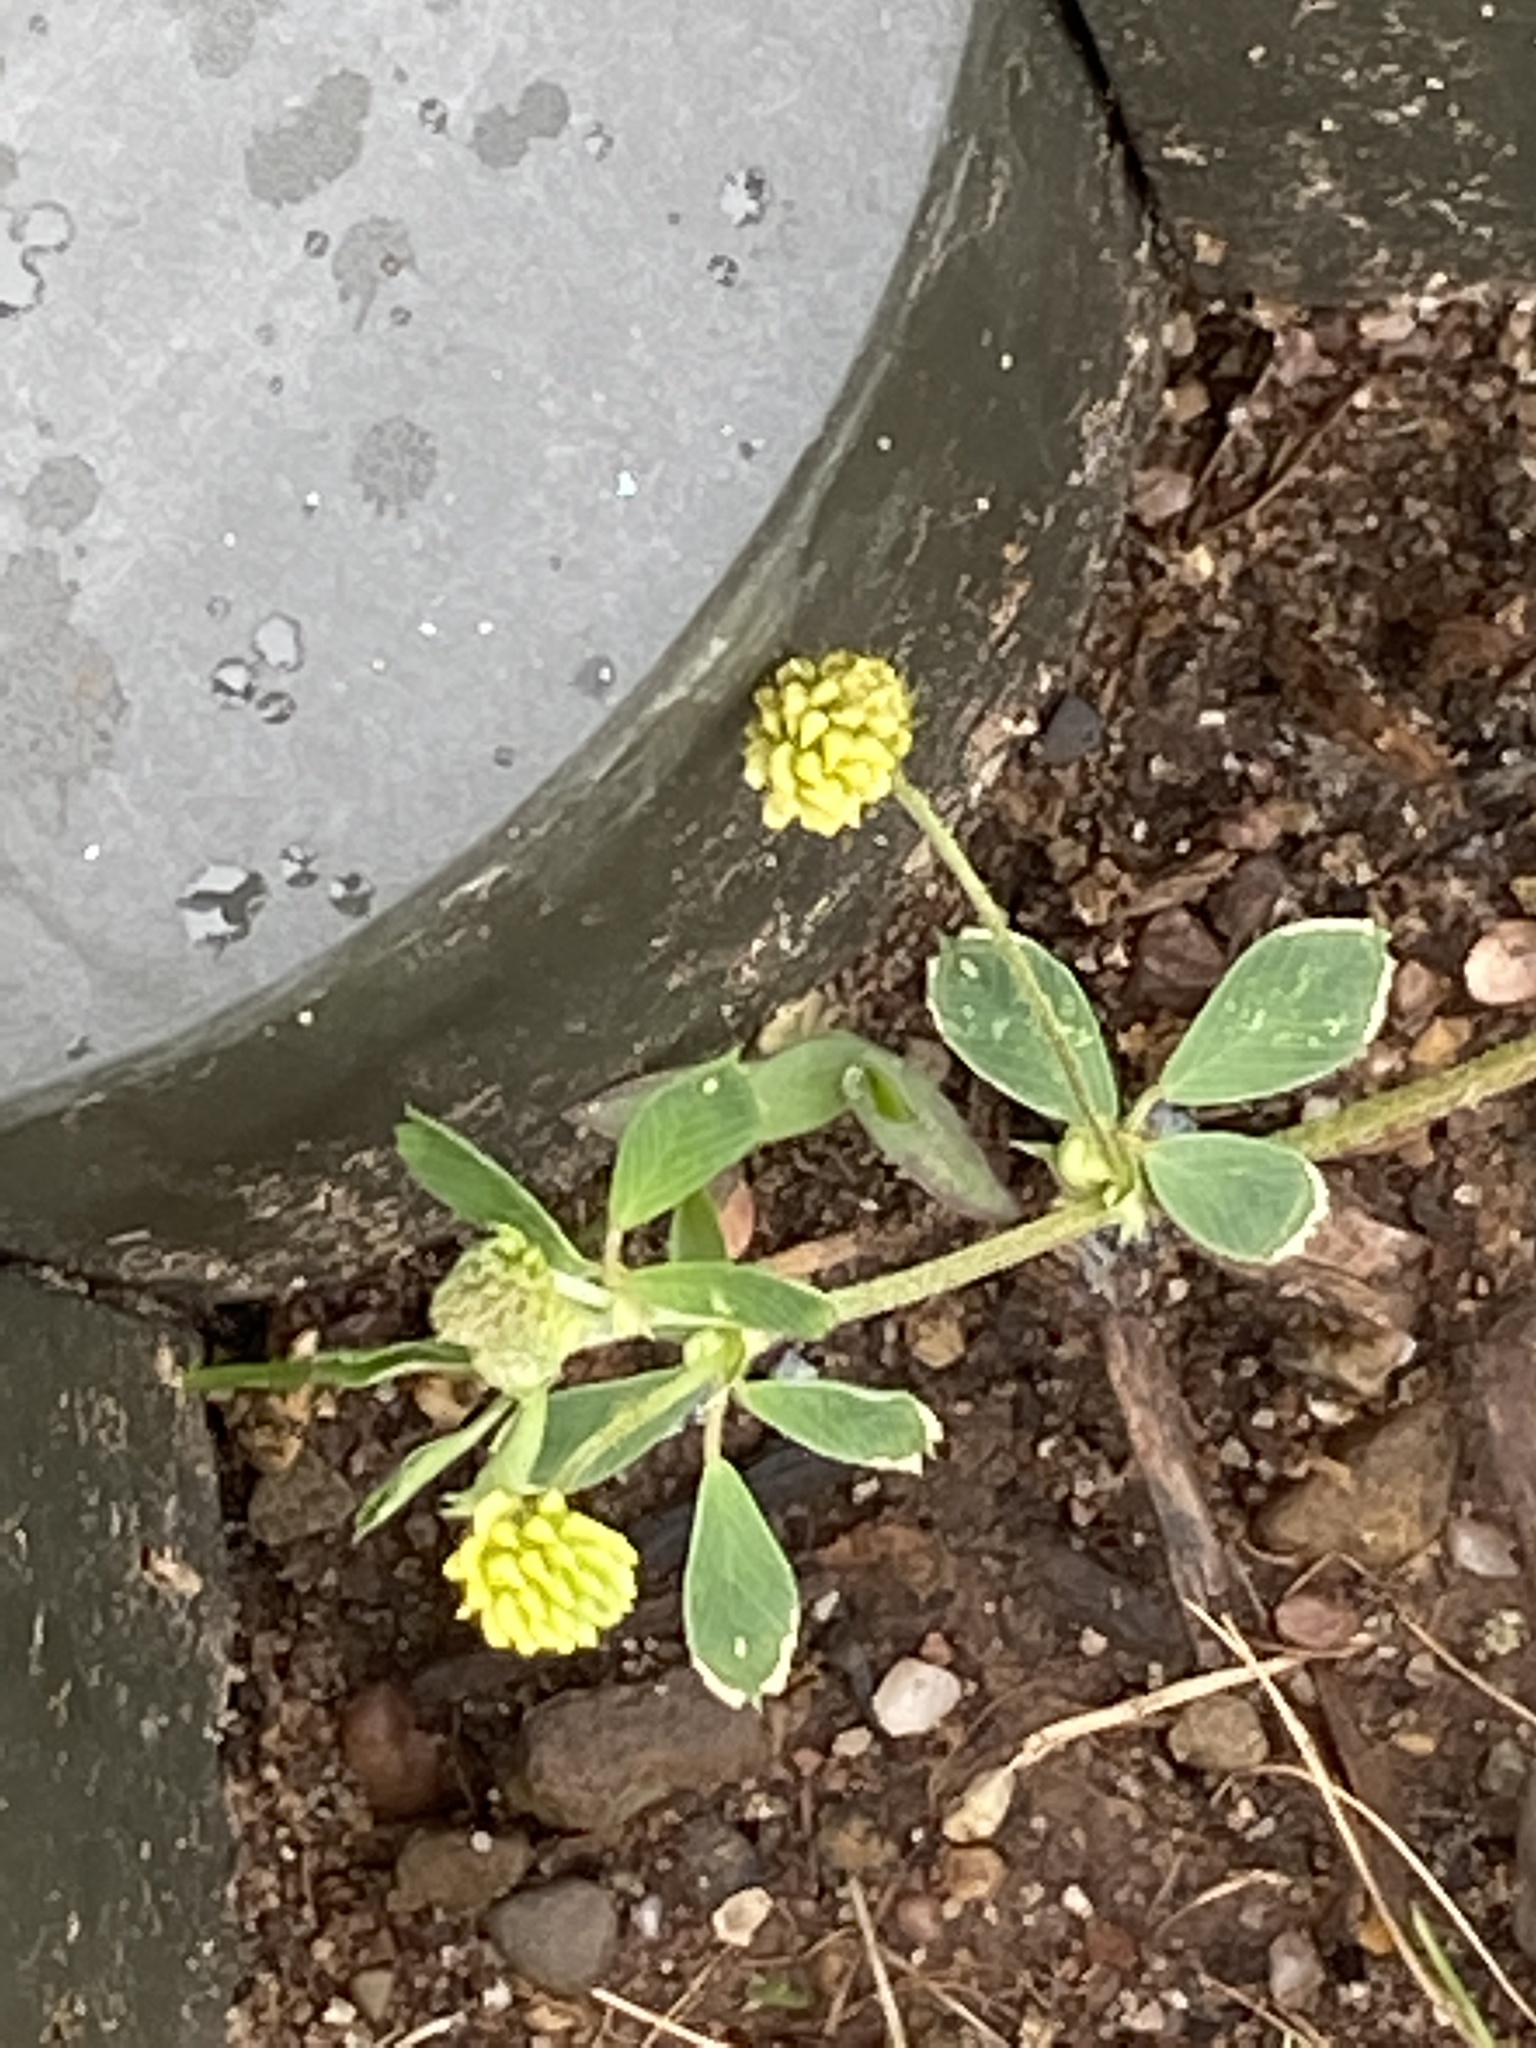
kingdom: Plantae
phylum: Tracheophyta
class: Magnoliopsida
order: Fabales
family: Fabaceae
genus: Medicago
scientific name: Medicago lupulina
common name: Black medick
